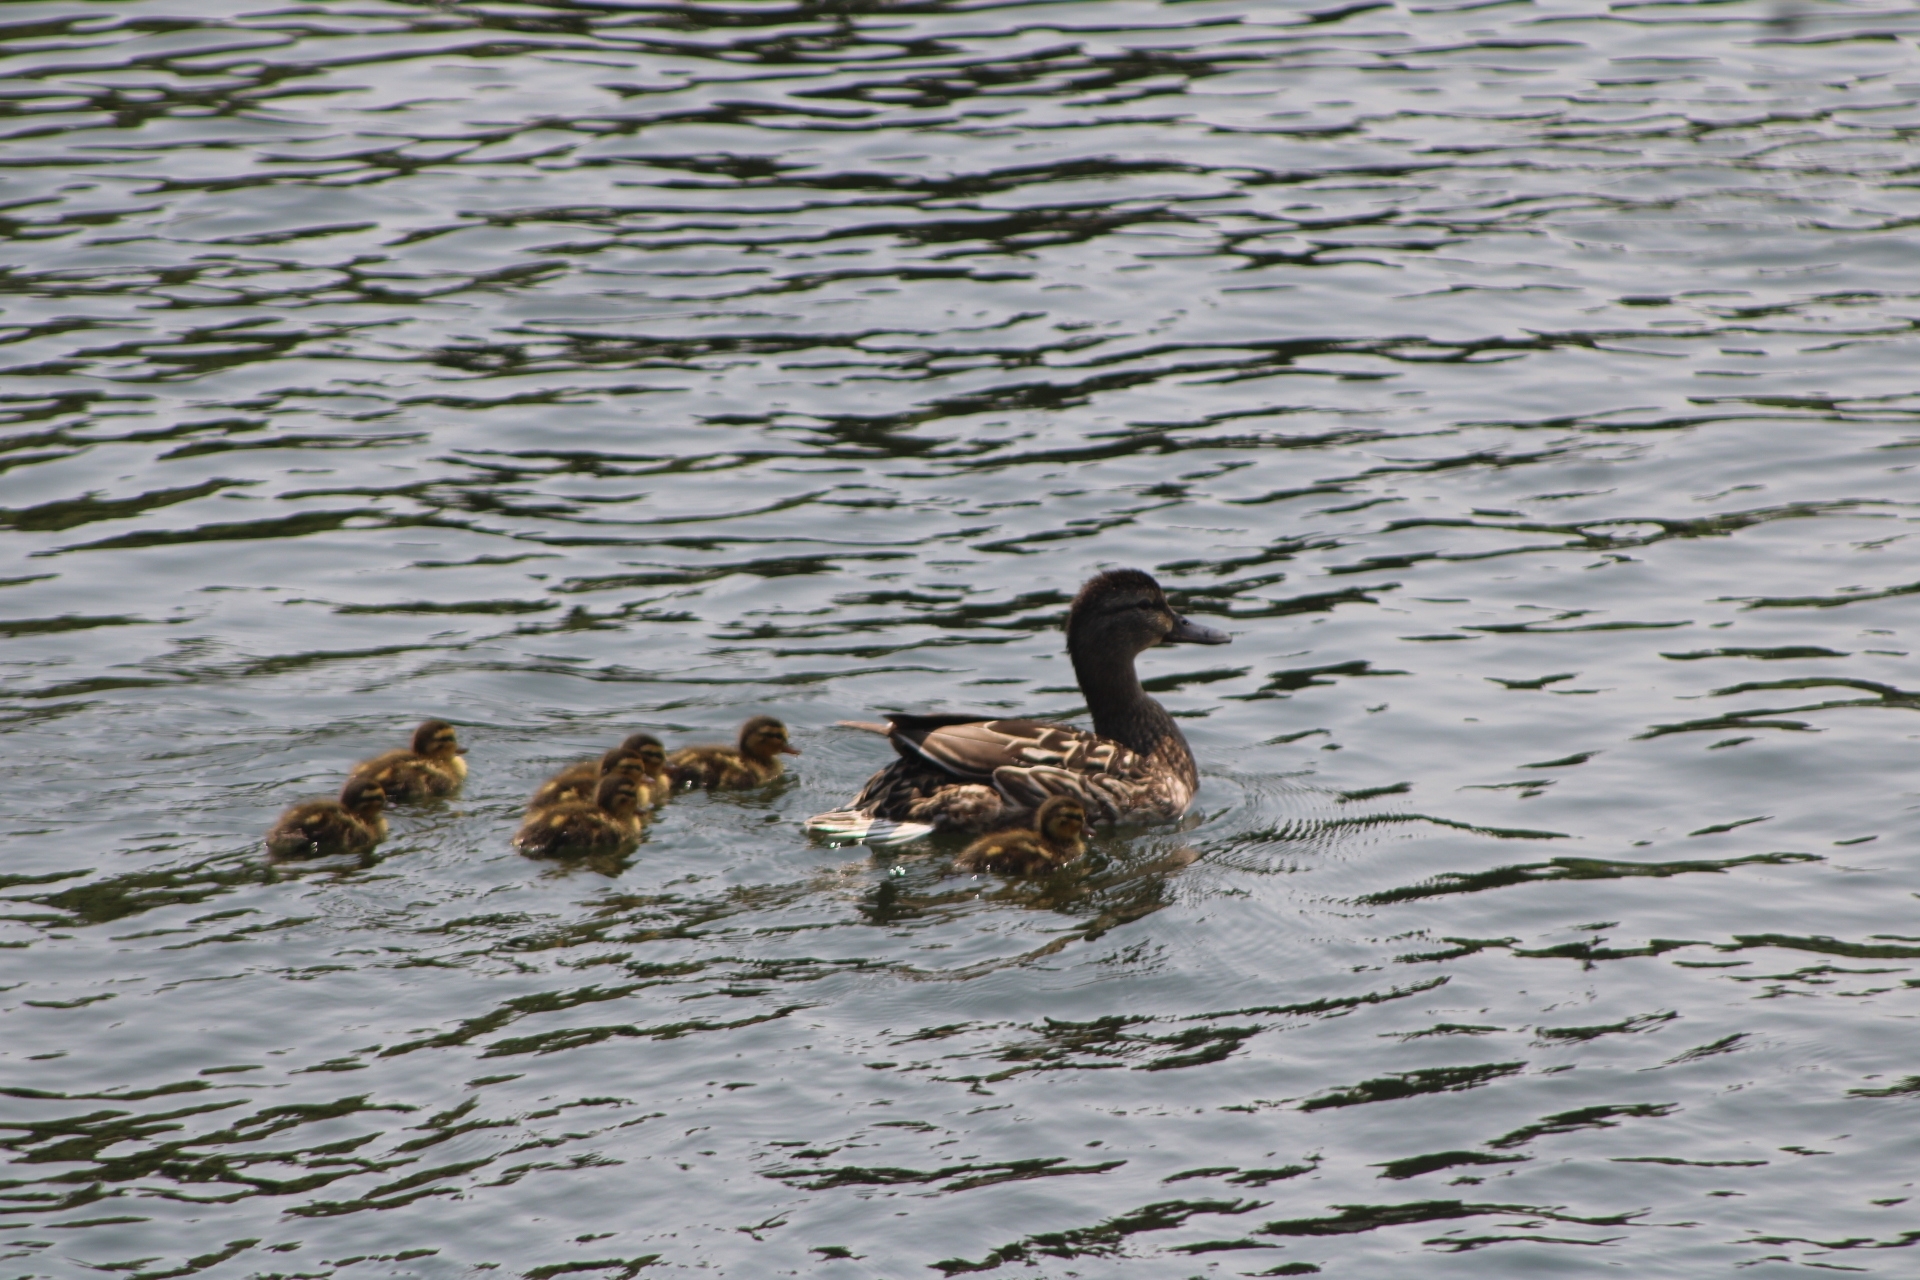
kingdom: Animalia
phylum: Chordata
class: Aves
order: Anseriformes
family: Anatidae
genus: Anas
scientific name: Anas platyrhynchos
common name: Mallard
